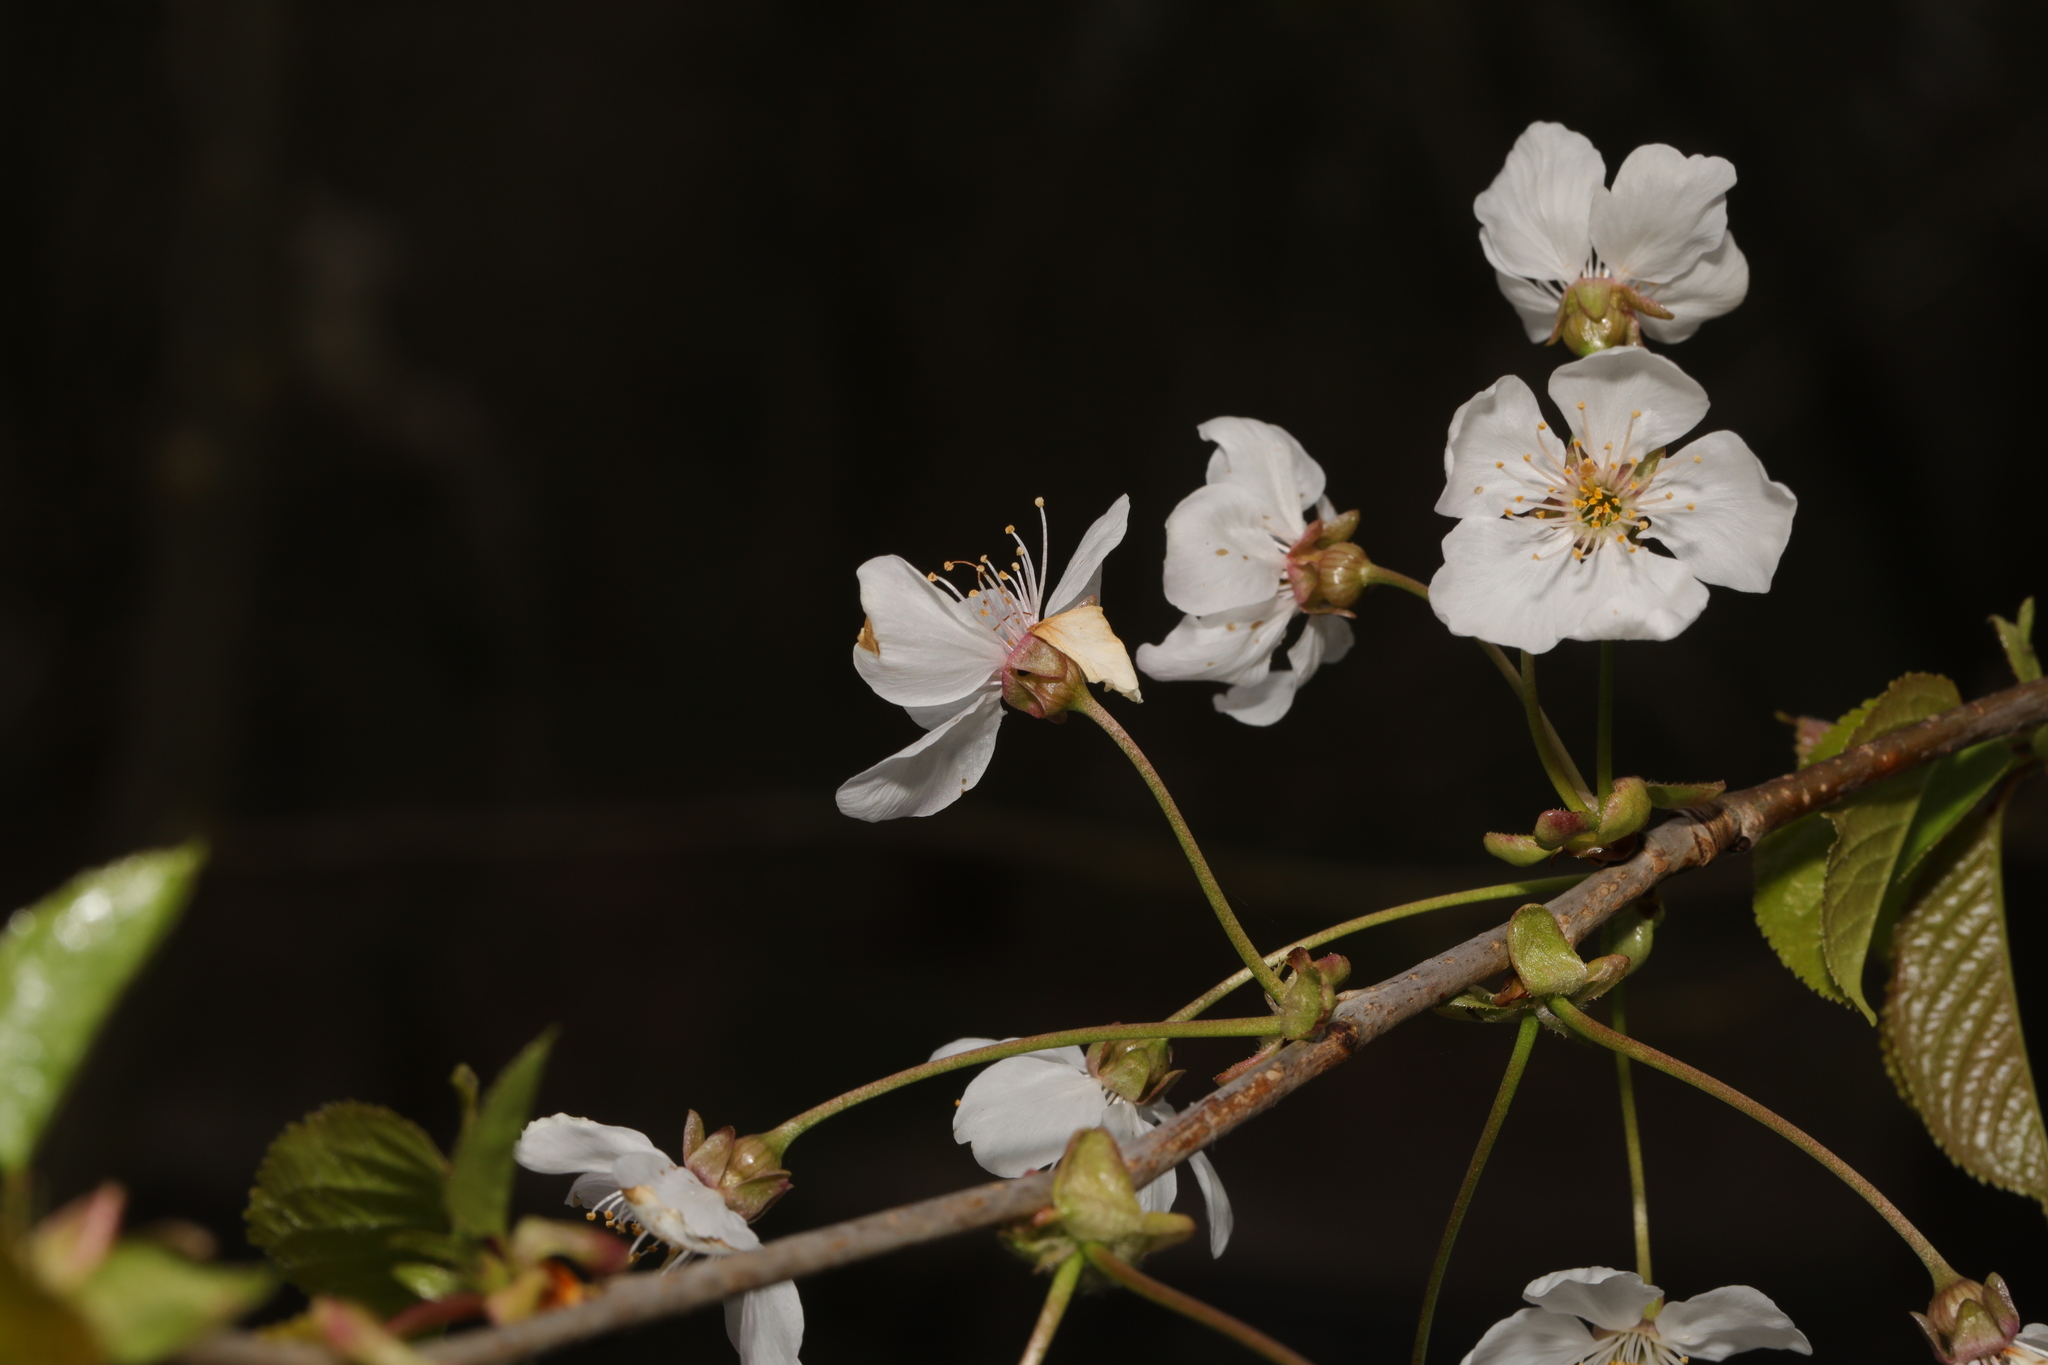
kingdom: Plantae
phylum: Tracheophyta
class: Magnoliopsida
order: Rosales
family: Rosaceae
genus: Prunus
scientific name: Prunus avium
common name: Sweet cherry
